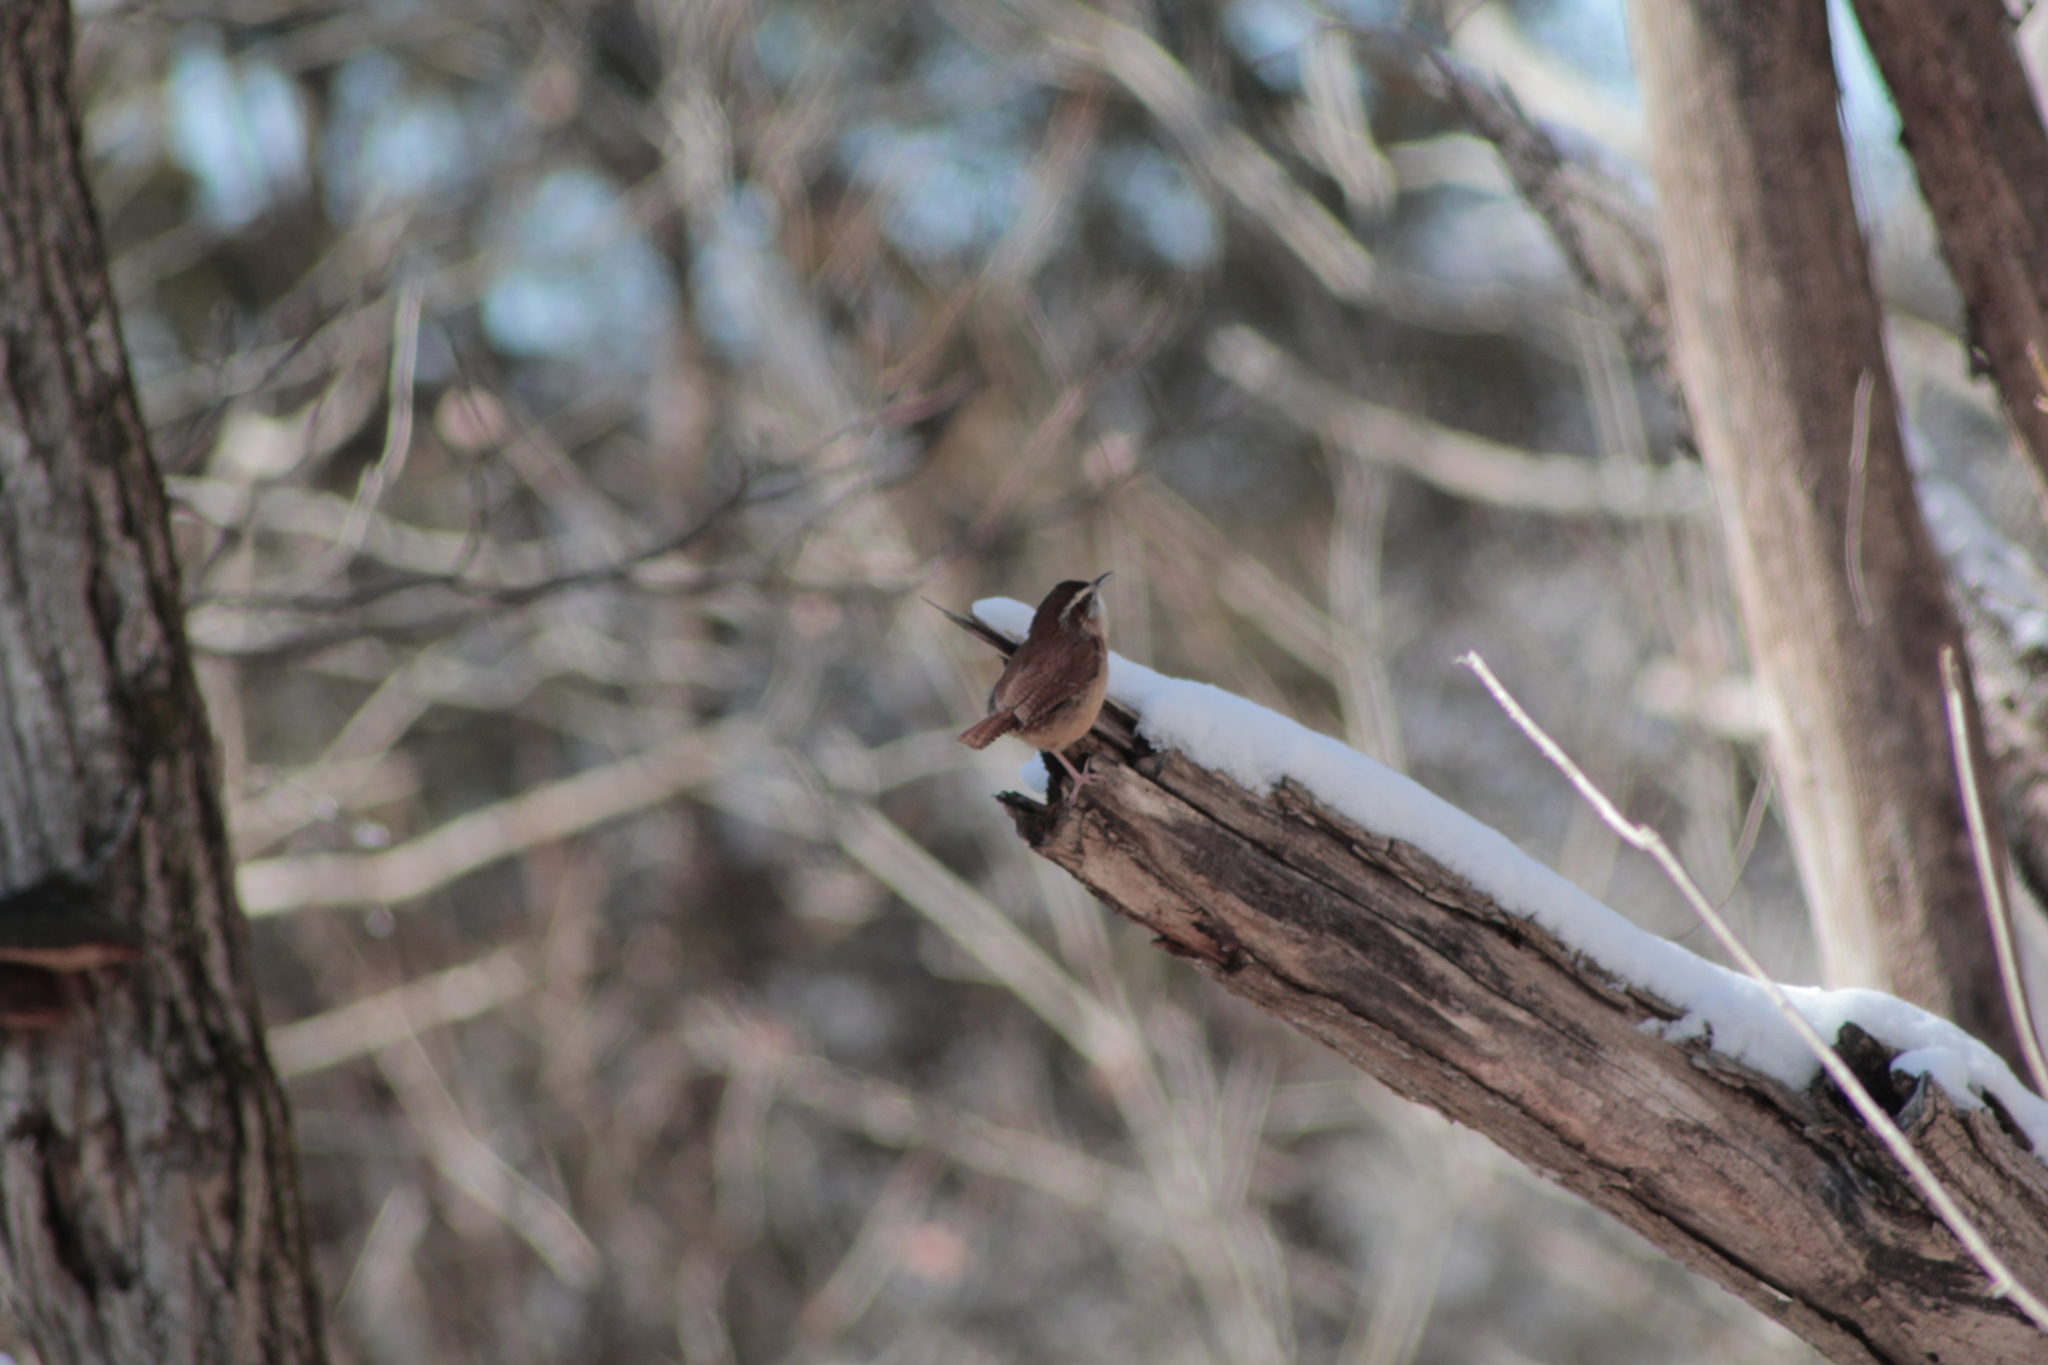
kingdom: Animalia
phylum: Chordata
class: Aves
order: Passeriformes
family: Troglodytidae
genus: Thryothorus
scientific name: Thryothorus ludovicianus
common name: Carolina wren
